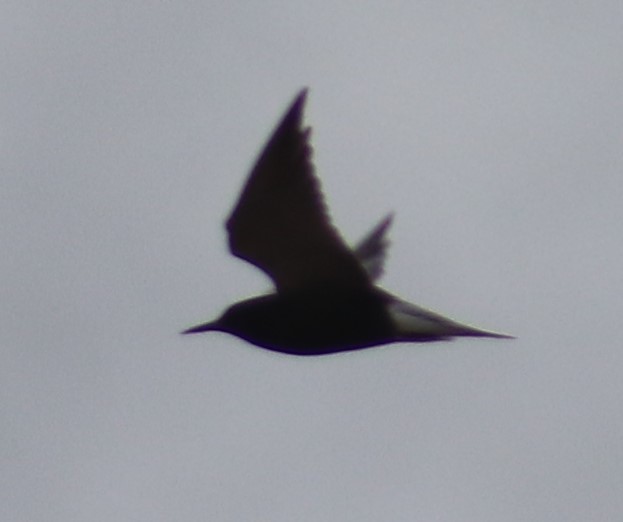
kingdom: Animalia
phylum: Chordata
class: Aves
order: Charadriiformes
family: Laridae
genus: Chlidonias
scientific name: Chlidonias niger
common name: Black tern
